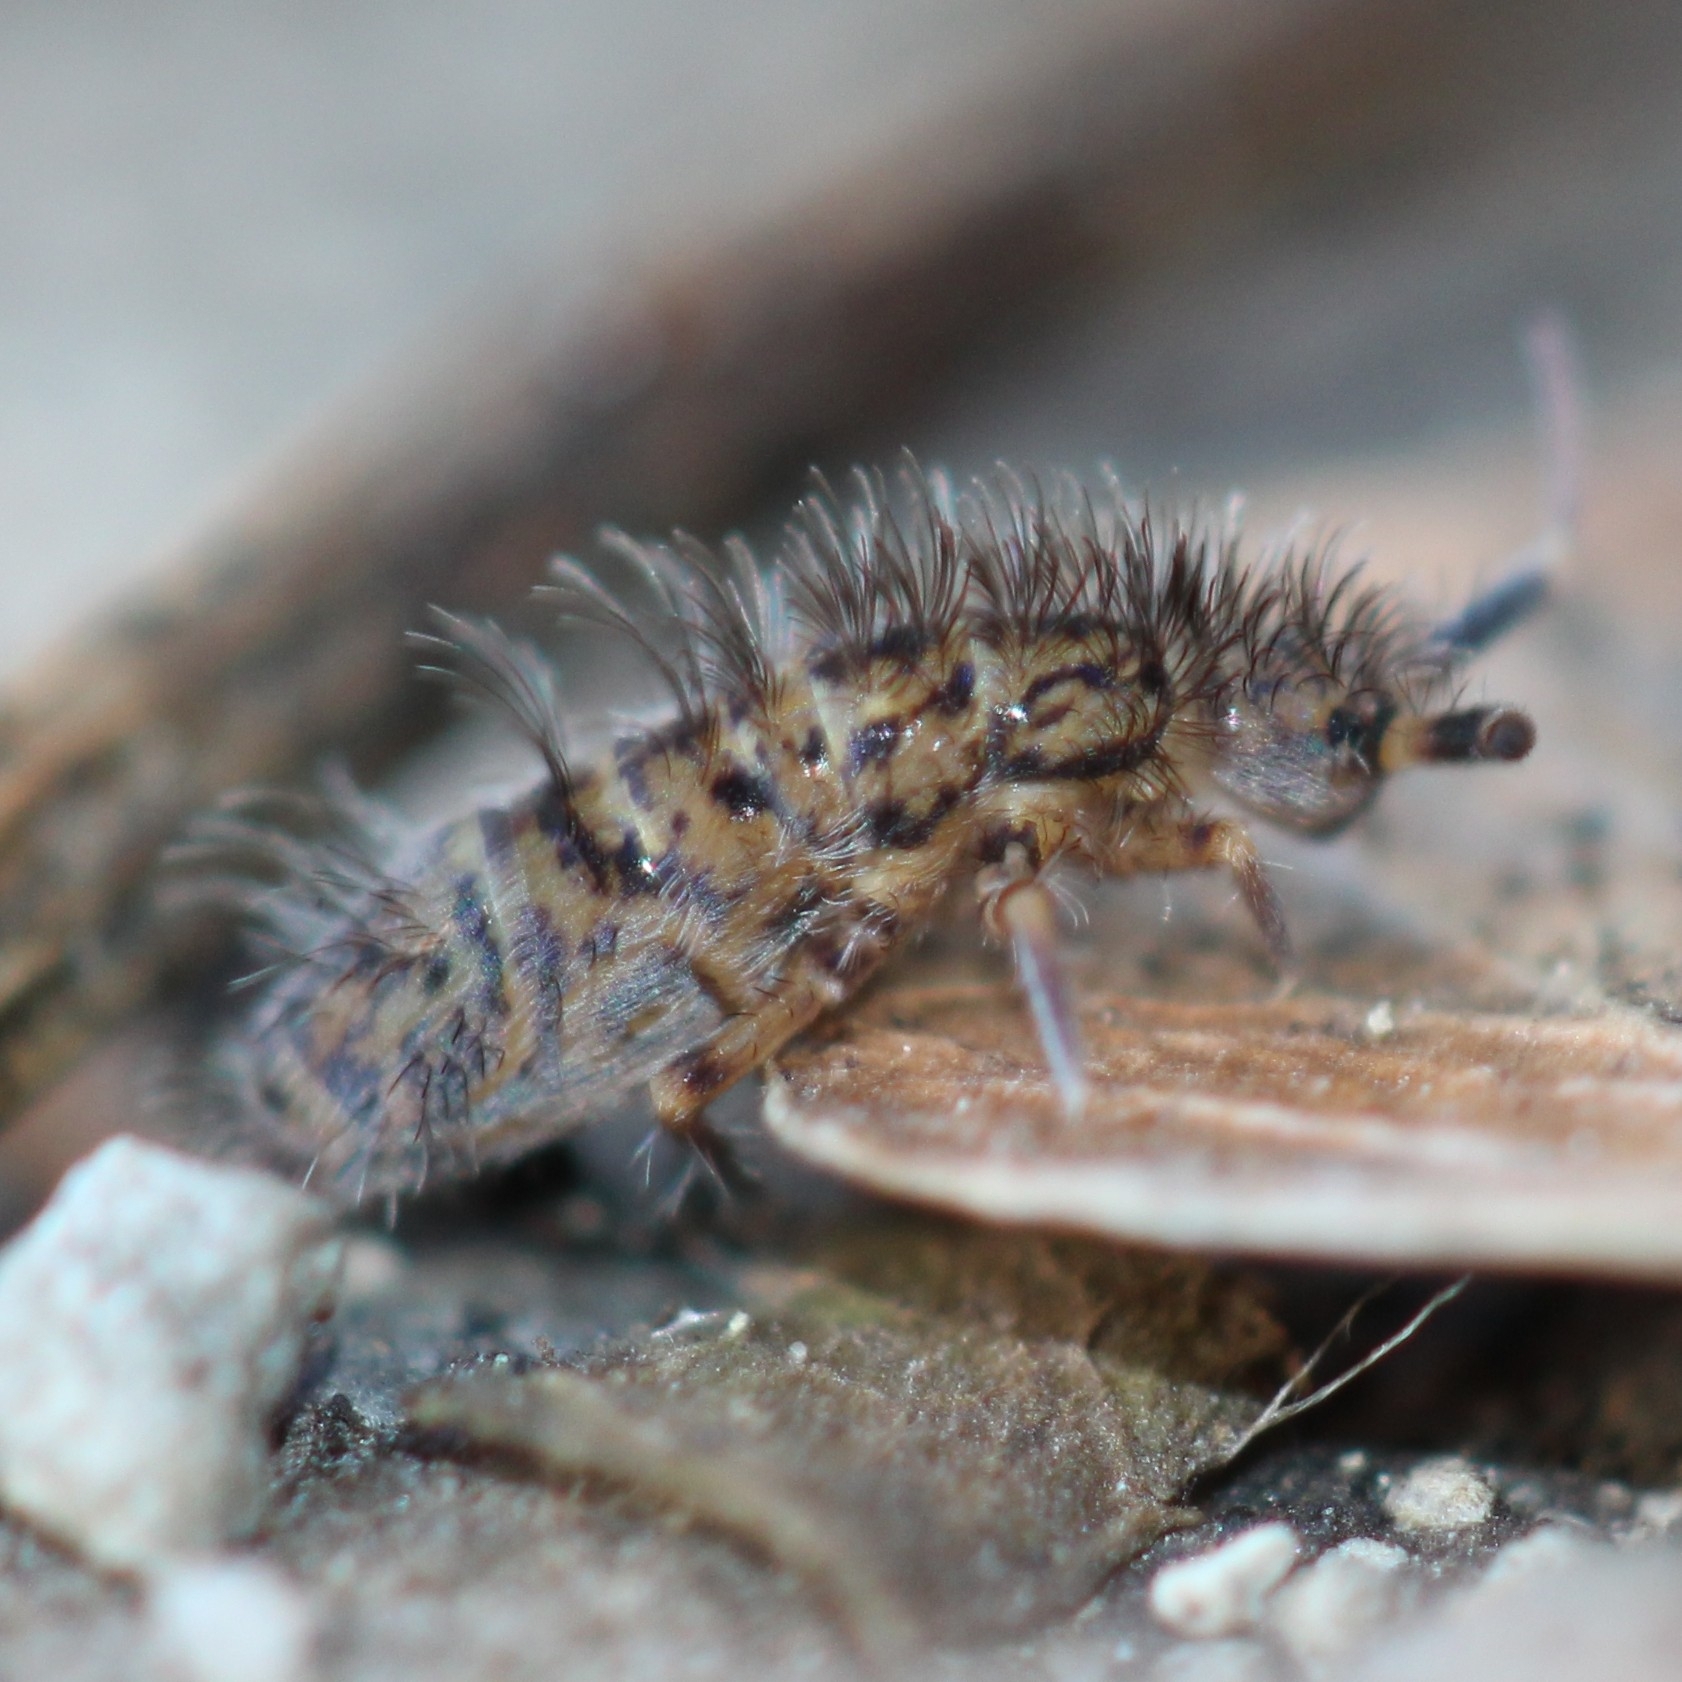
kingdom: Animalia
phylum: Arthropoda
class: Collembola
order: Entomobryomorpha
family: Orchesellidae
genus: Orchesella
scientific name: Orchesella villosa
